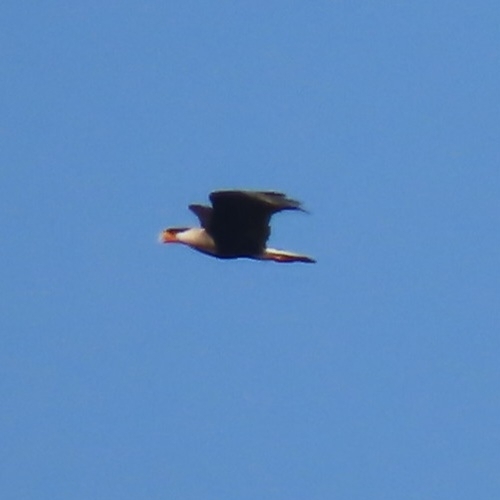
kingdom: Animalia
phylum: Chordata
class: Aves
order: Falconiformes
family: Falconidae
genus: Caracara
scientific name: Caracara plancus
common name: Southern caracara
